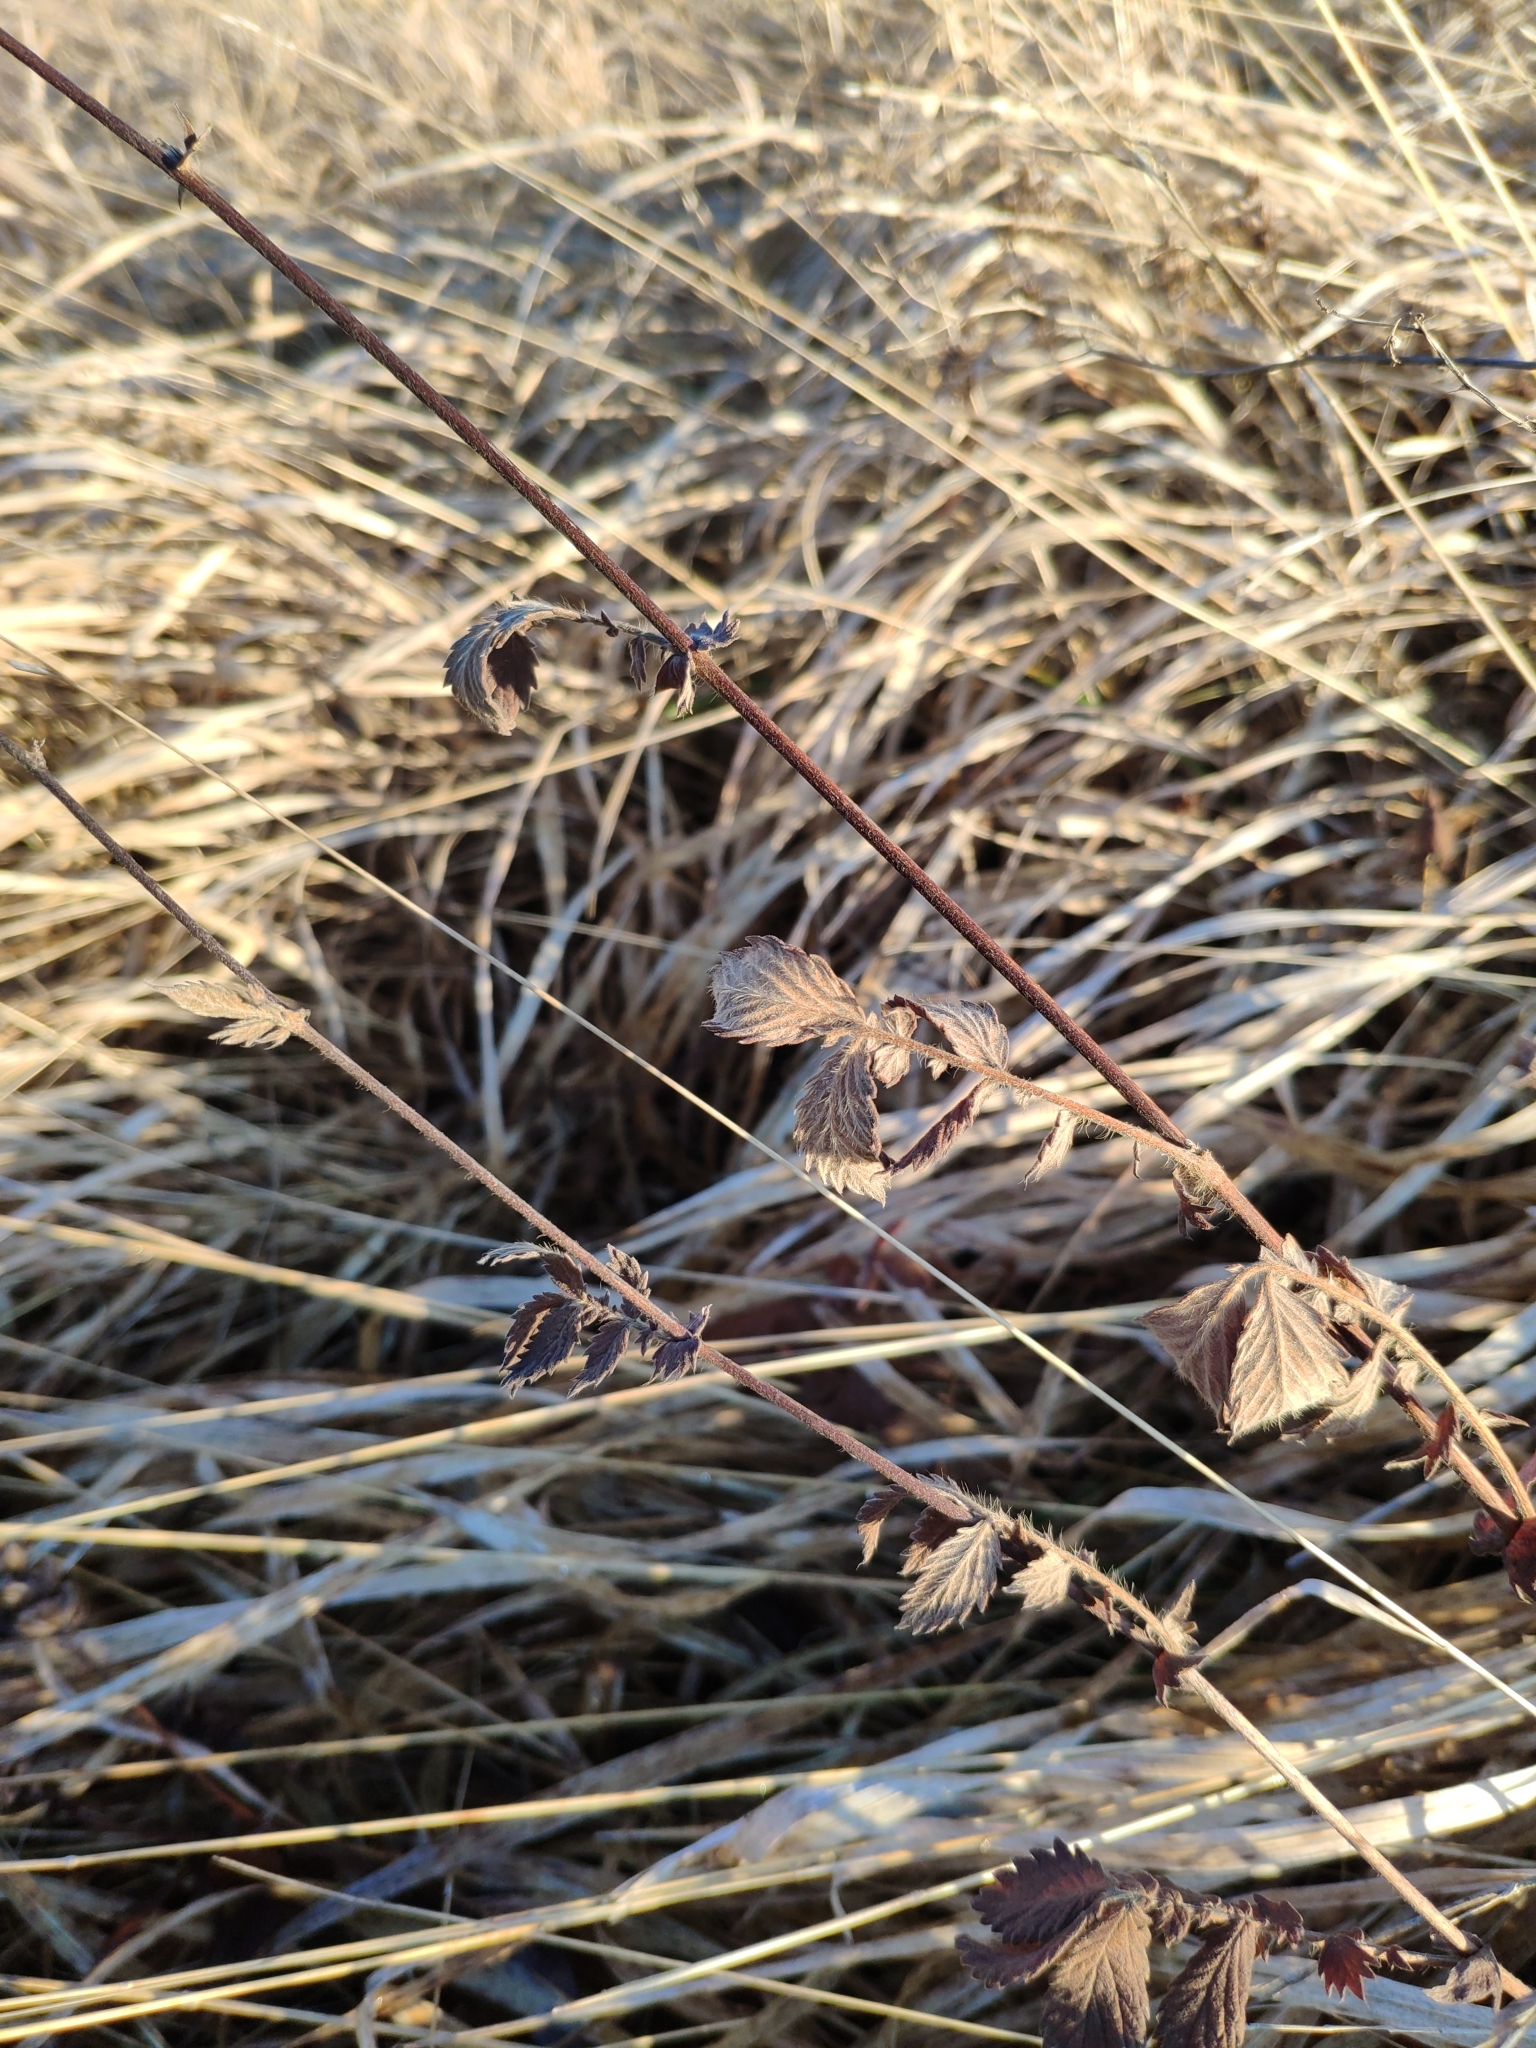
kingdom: Plantae
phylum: Tracheophyta
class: Magnoliopsida
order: Rosales
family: Rosaceae
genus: Agrimonia
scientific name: Agrimonia eupatoria
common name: Agrimony
